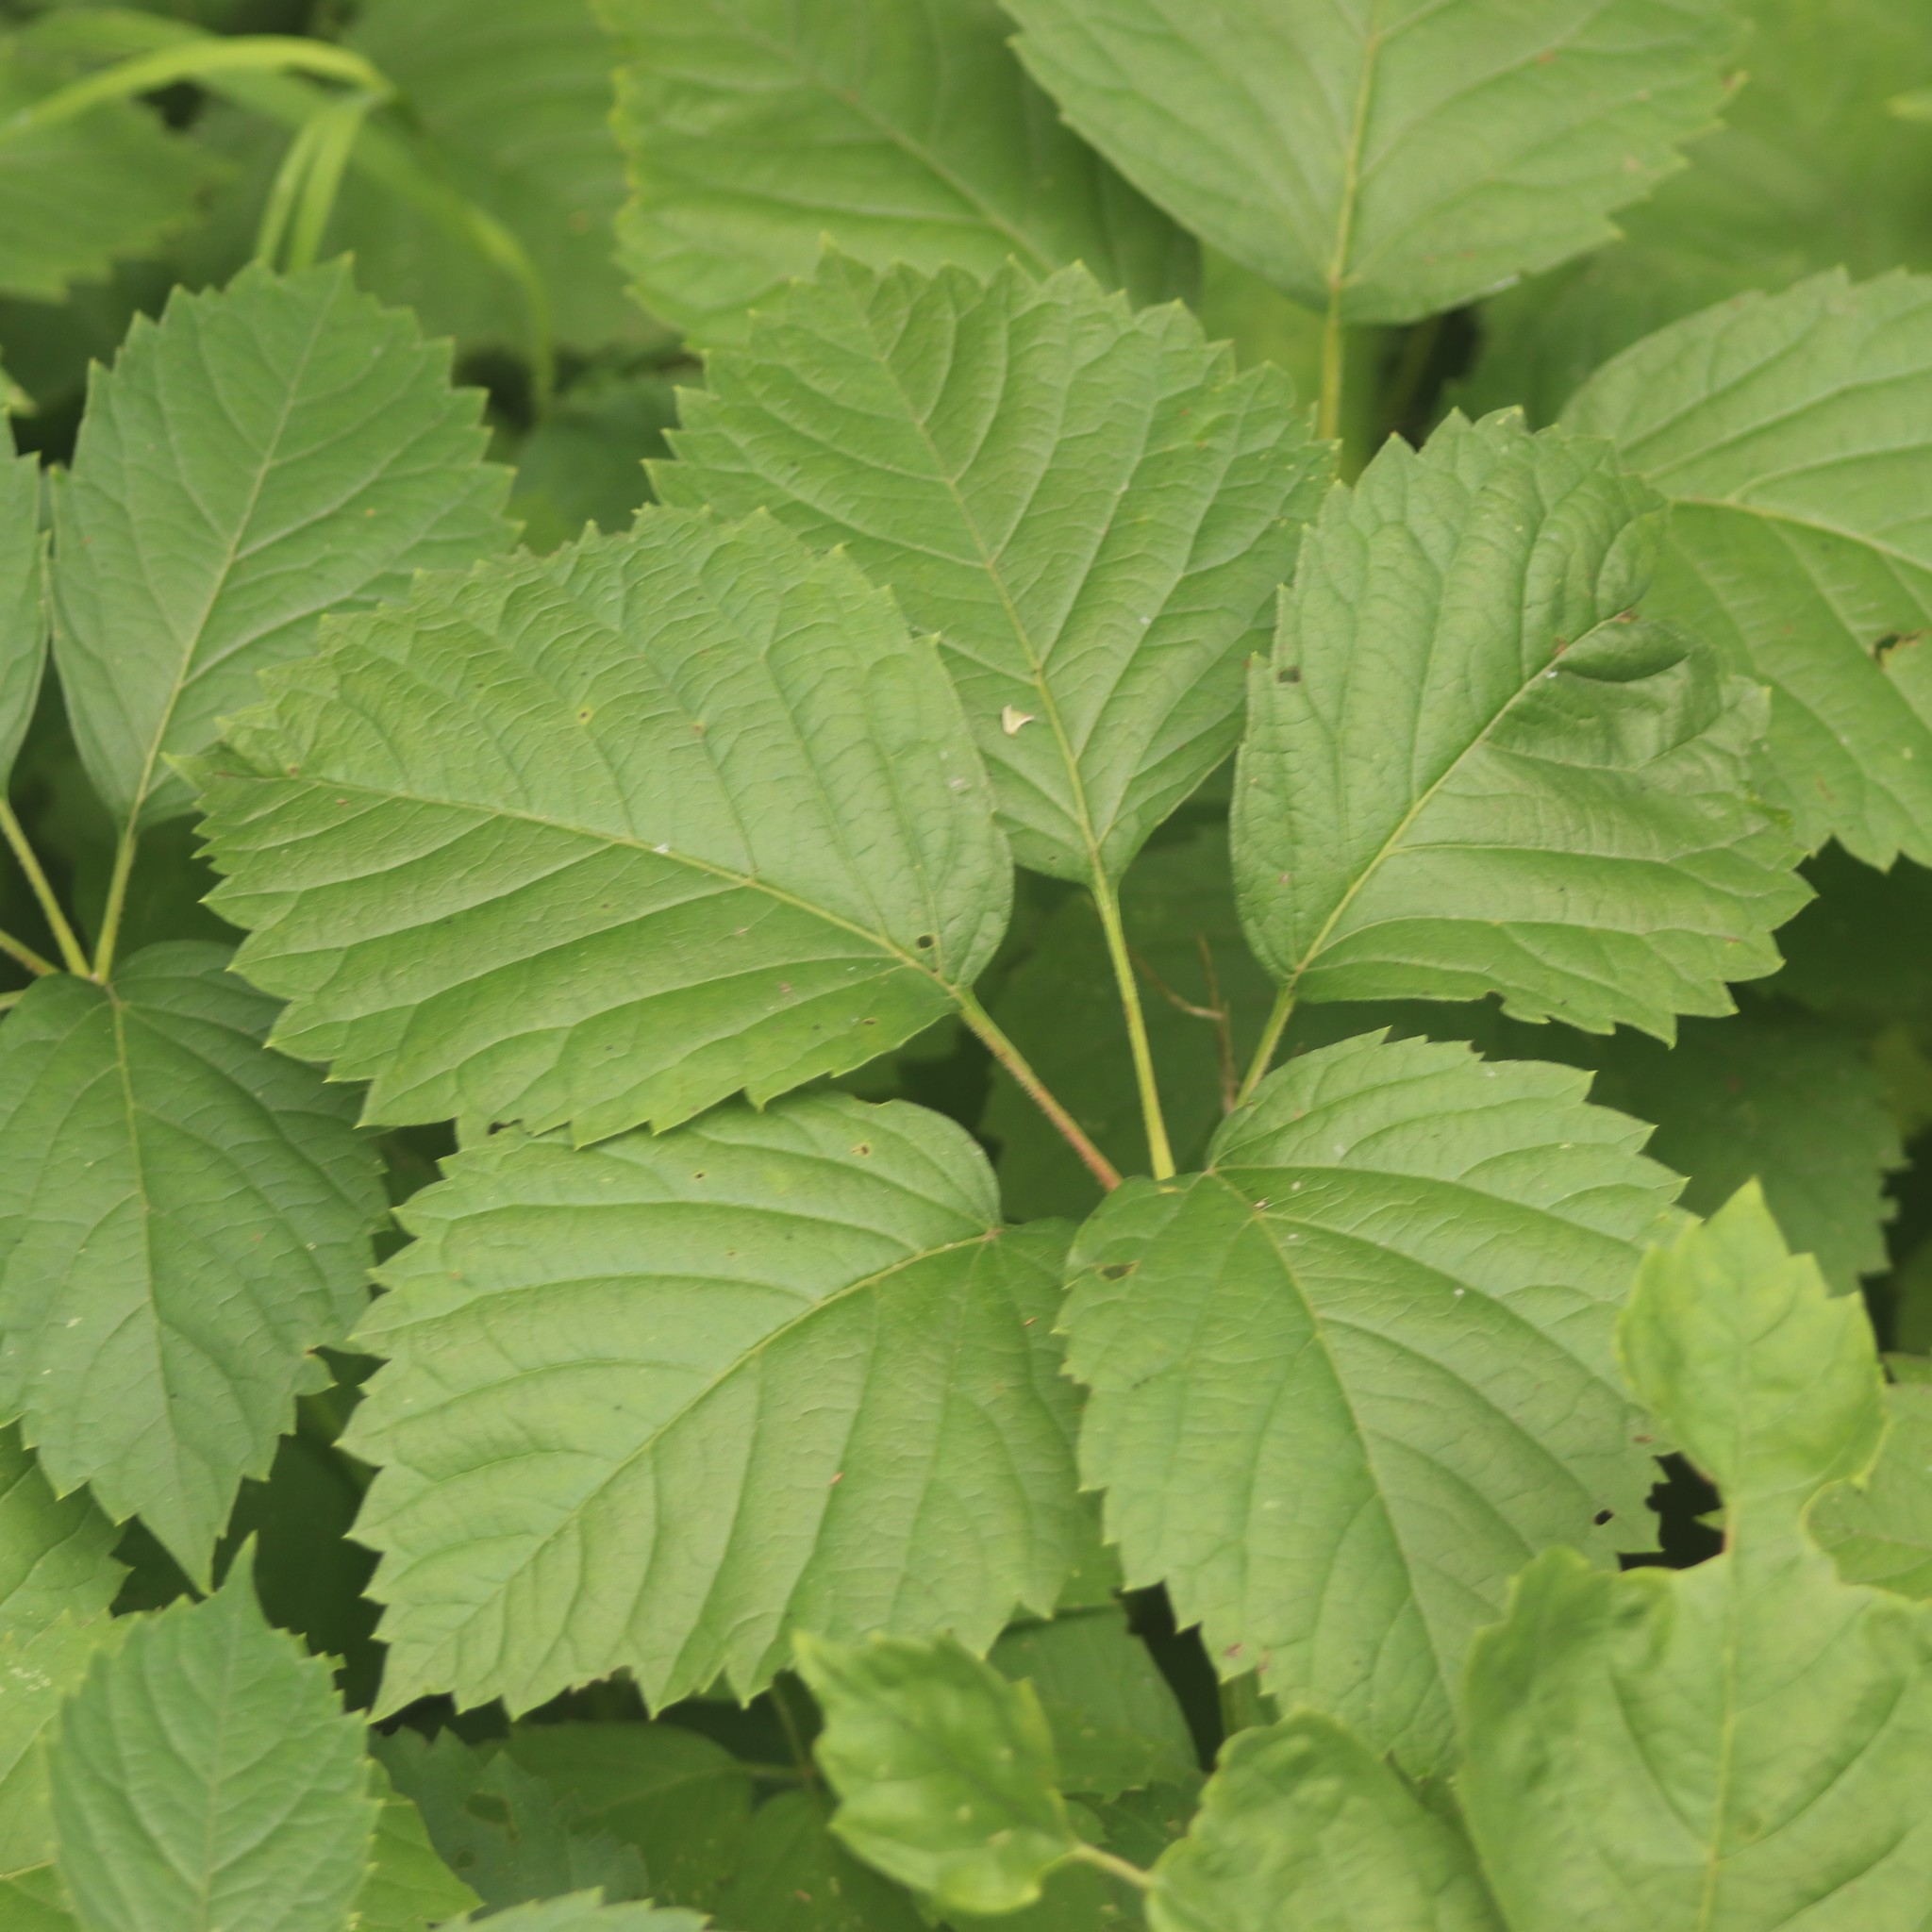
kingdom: Plantae
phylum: Tracheophyta
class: Magnoliopsida
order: Vitales
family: Vitaceae
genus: Parthenocissus
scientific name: Parthenocissus inserta
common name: False virginia-creeper
